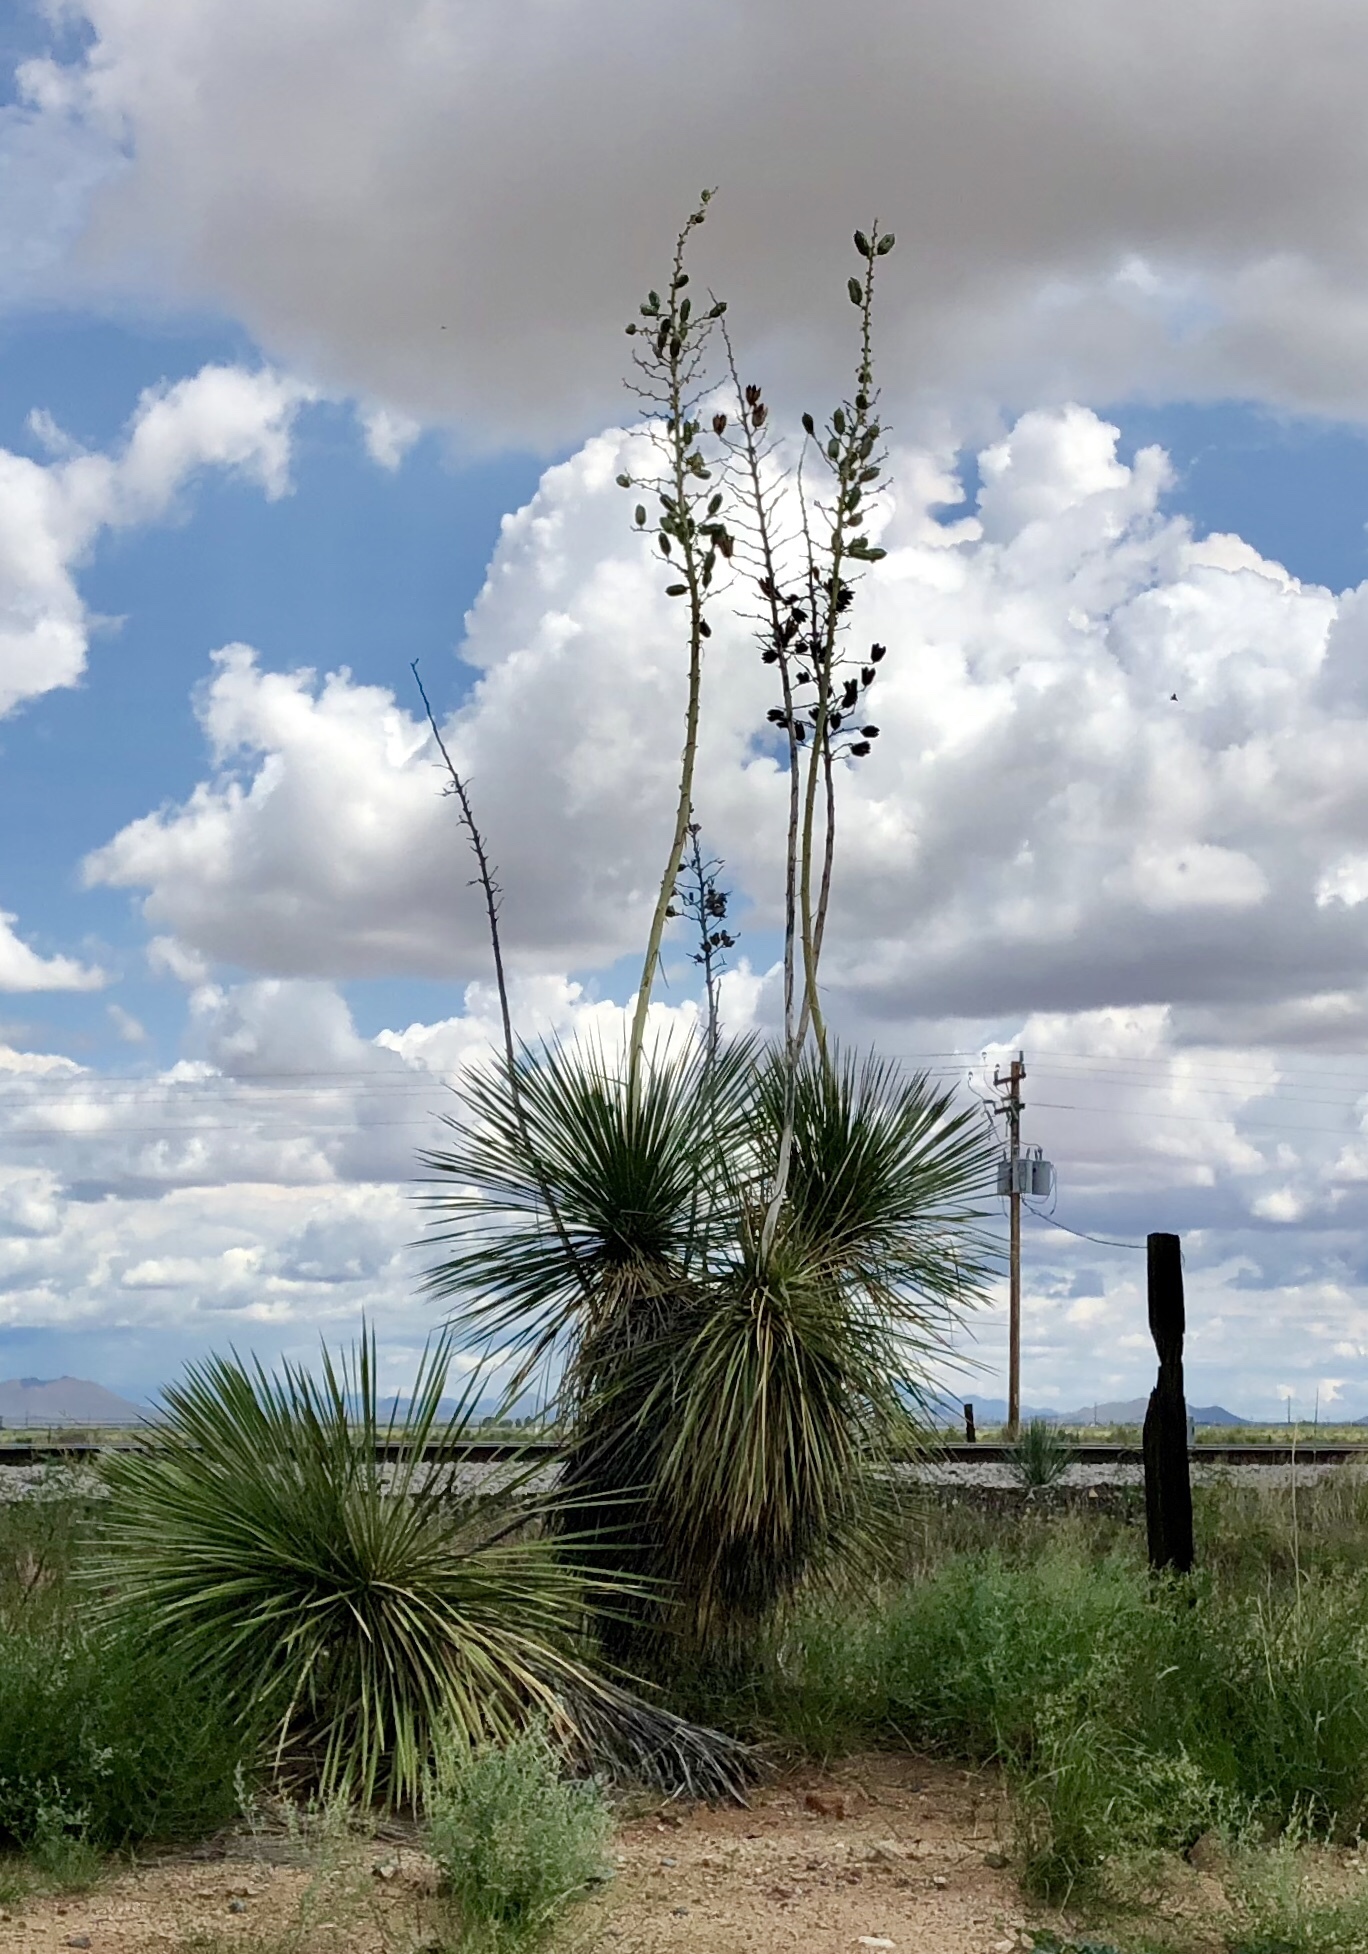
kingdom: Plantae
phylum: Tracheophyta
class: Liliopsida
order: Asparagales
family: Asparagaceae
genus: Yucca
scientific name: Yucca elata
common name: Palmella
